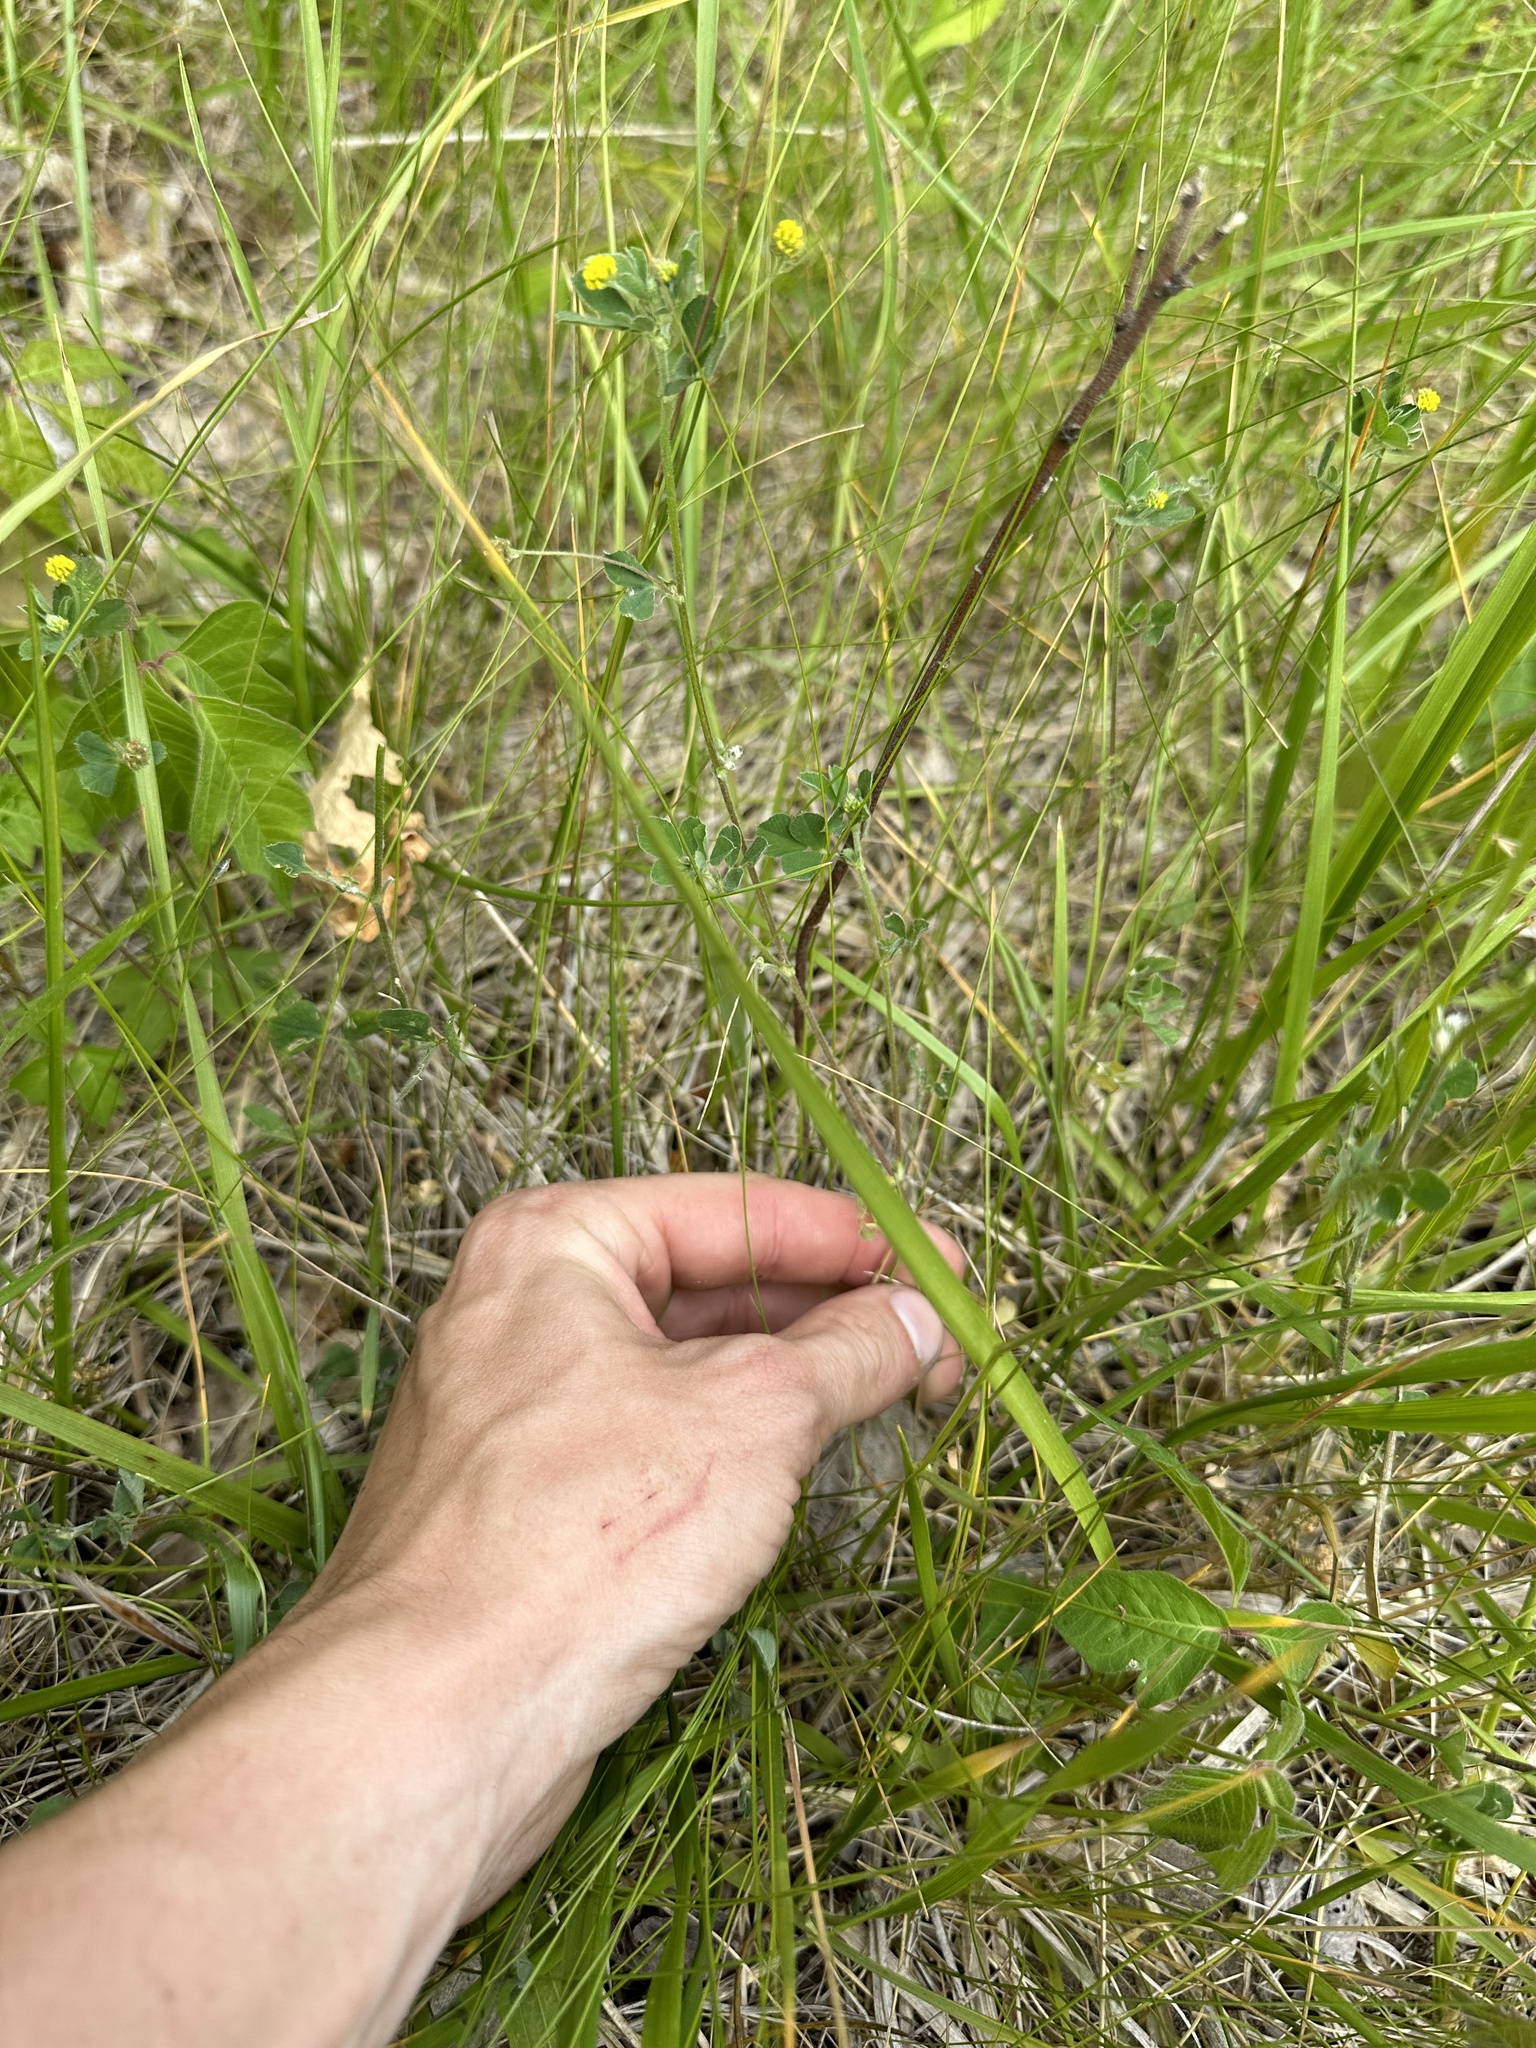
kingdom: Plantae
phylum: Tracheophyta
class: Magnoliopsida
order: Fabales
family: Fabaceae
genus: Medicago
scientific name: Medicago lupulina
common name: Black medick
